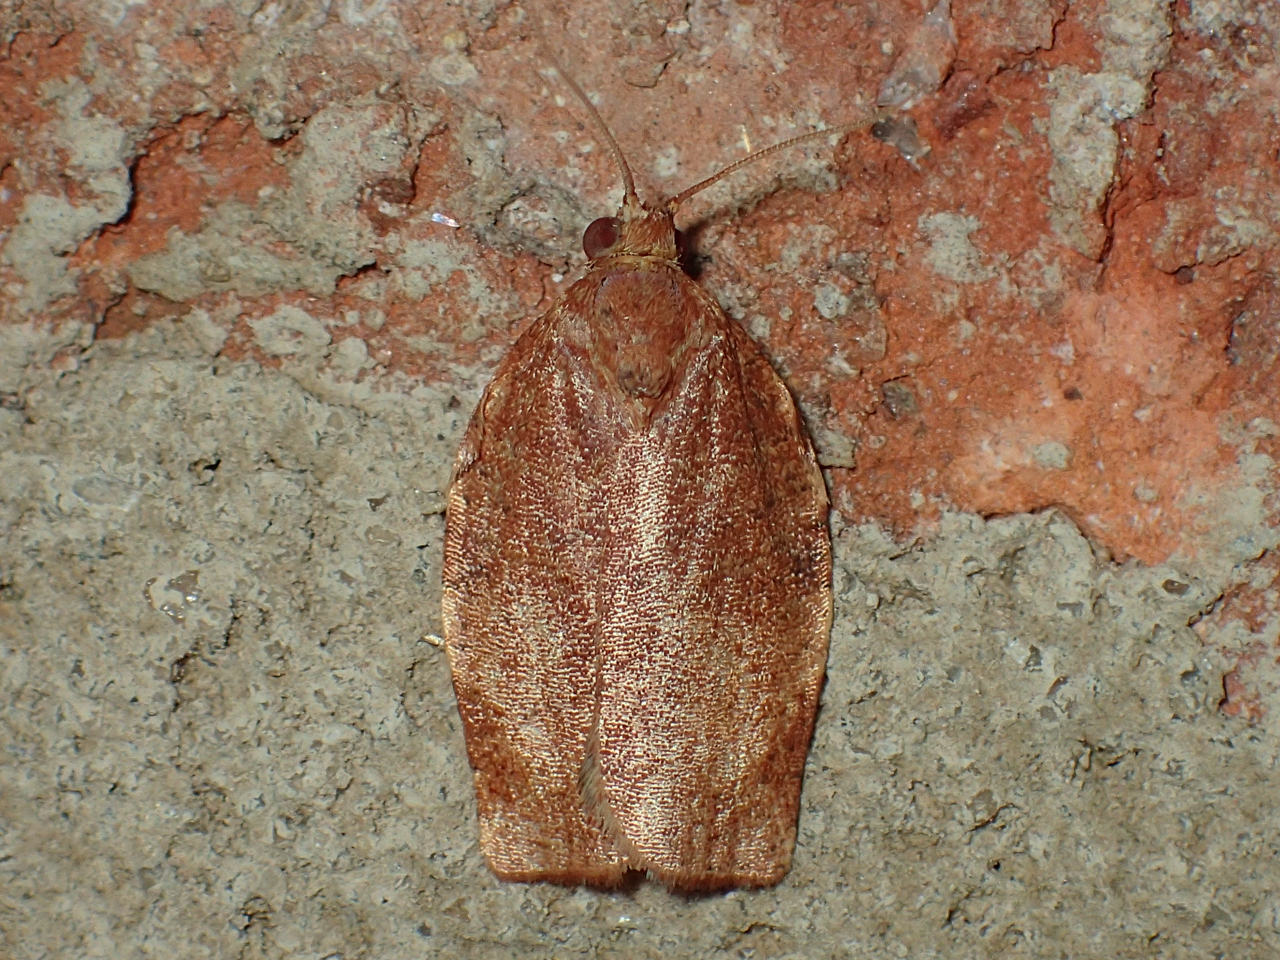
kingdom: Animalia
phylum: Arthropoda
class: Insecta
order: Lepidoptera
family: Tortricidae
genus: Choristoneura
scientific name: Choristoneura rosaceana
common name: Oblique-banded leafroller moth
